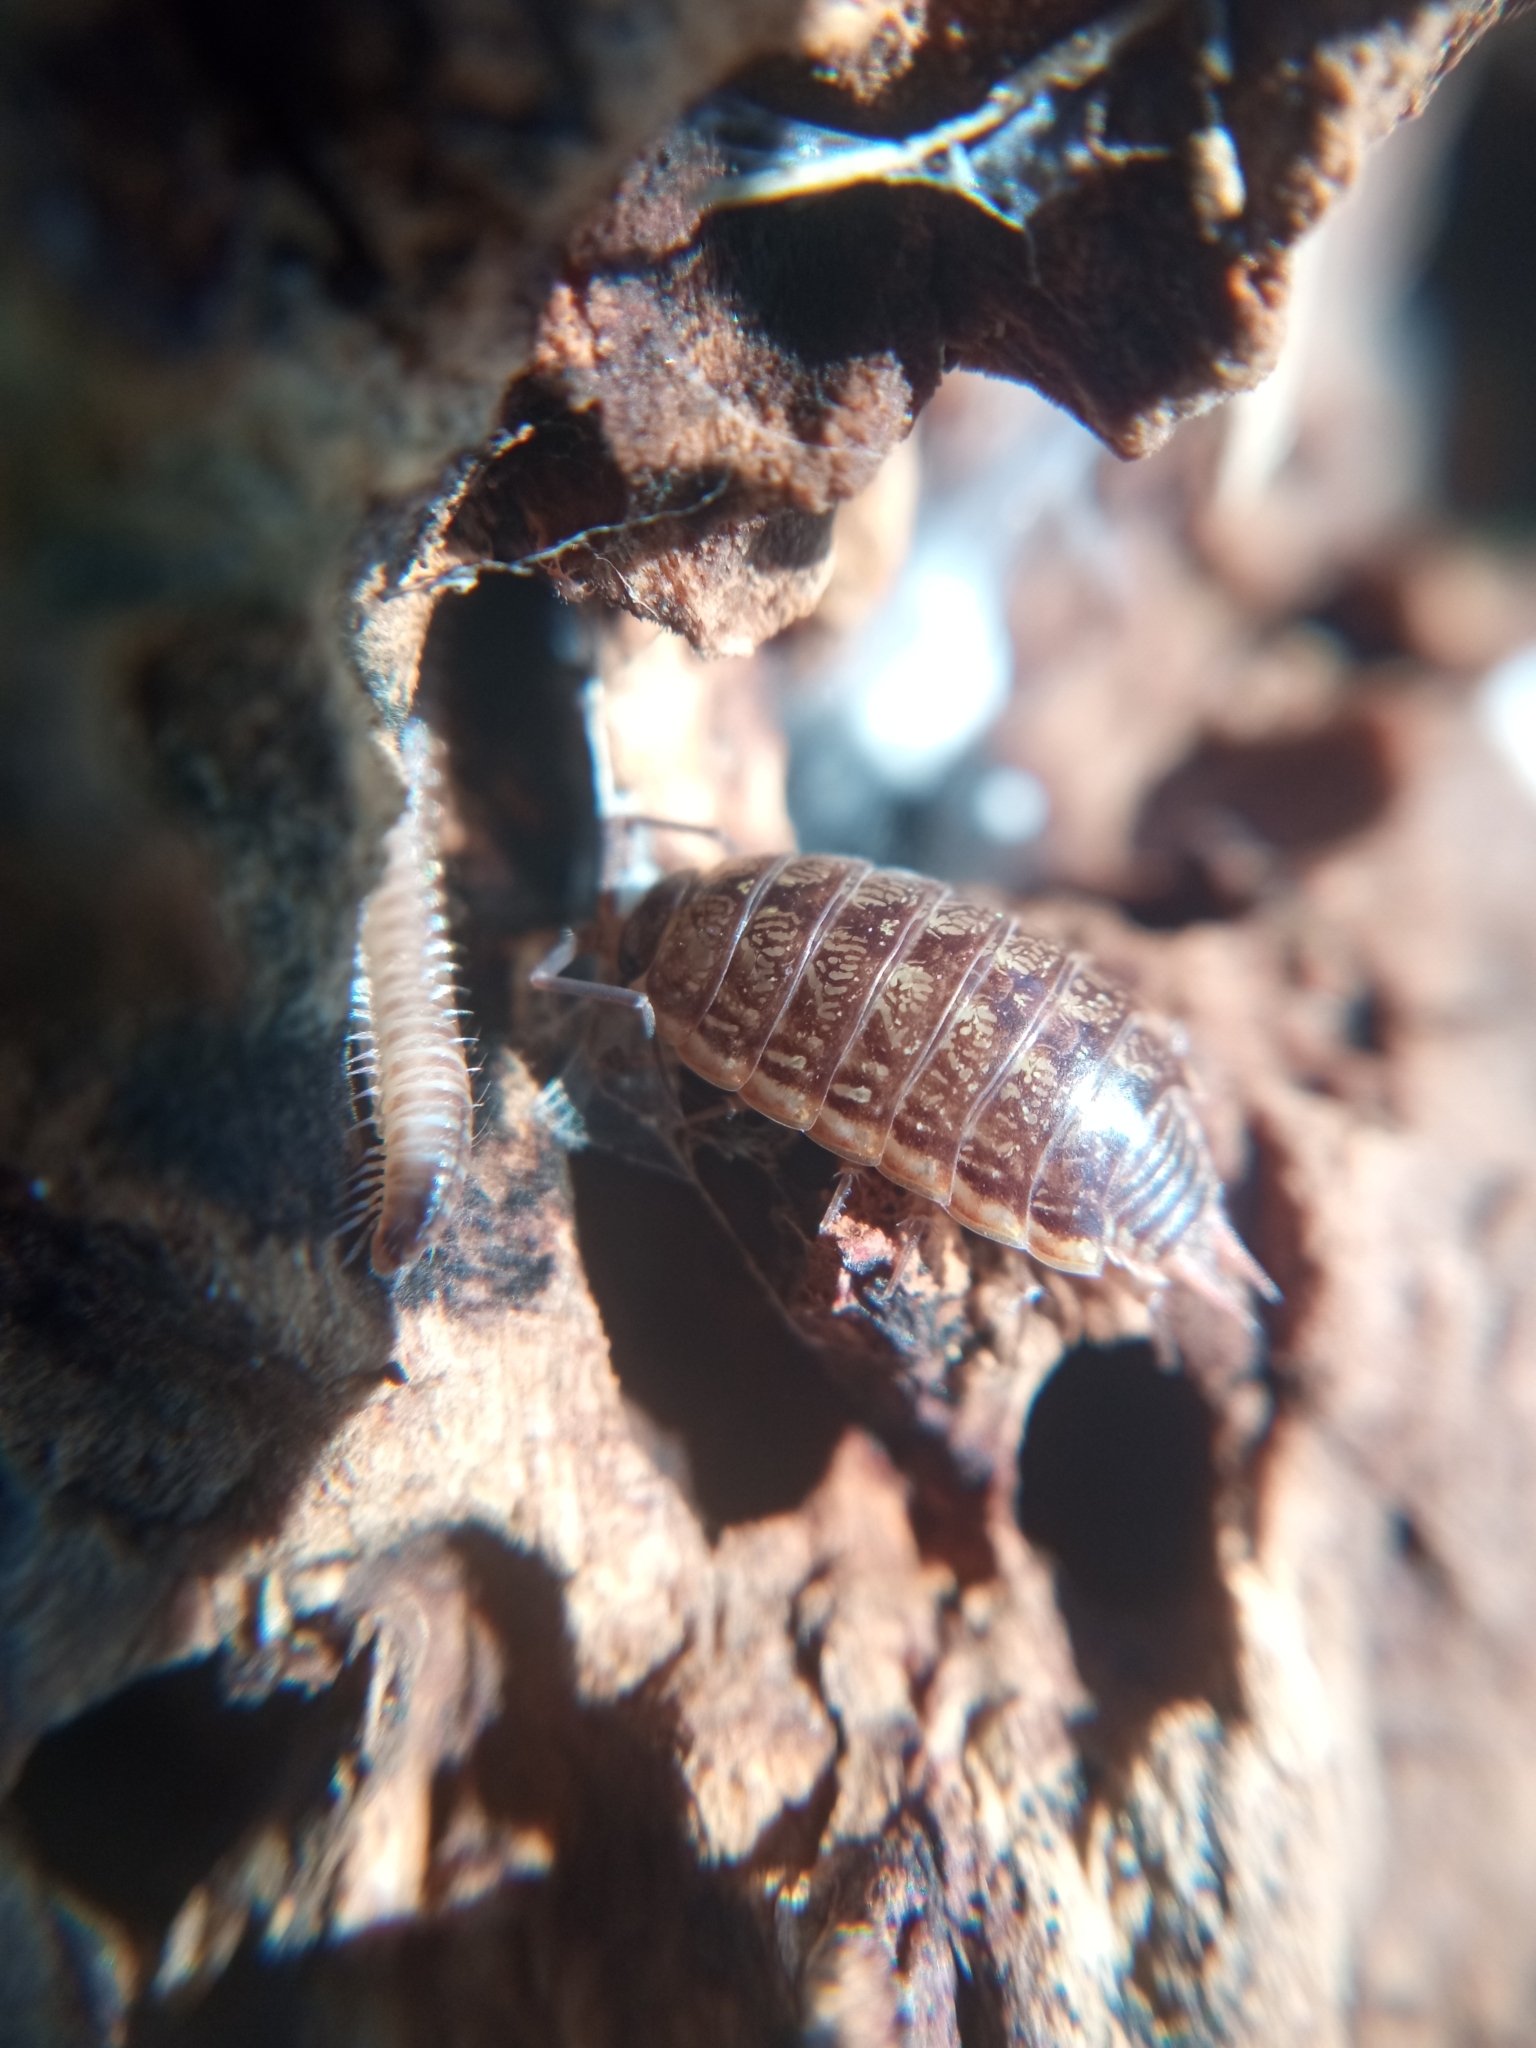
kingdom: Animalia
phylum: Arthropoda
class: Malacostraca
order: Isopoda
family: Philosciidae
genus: Philoscia
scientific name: Philoscia muscorum
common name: Common striped woodlouse
